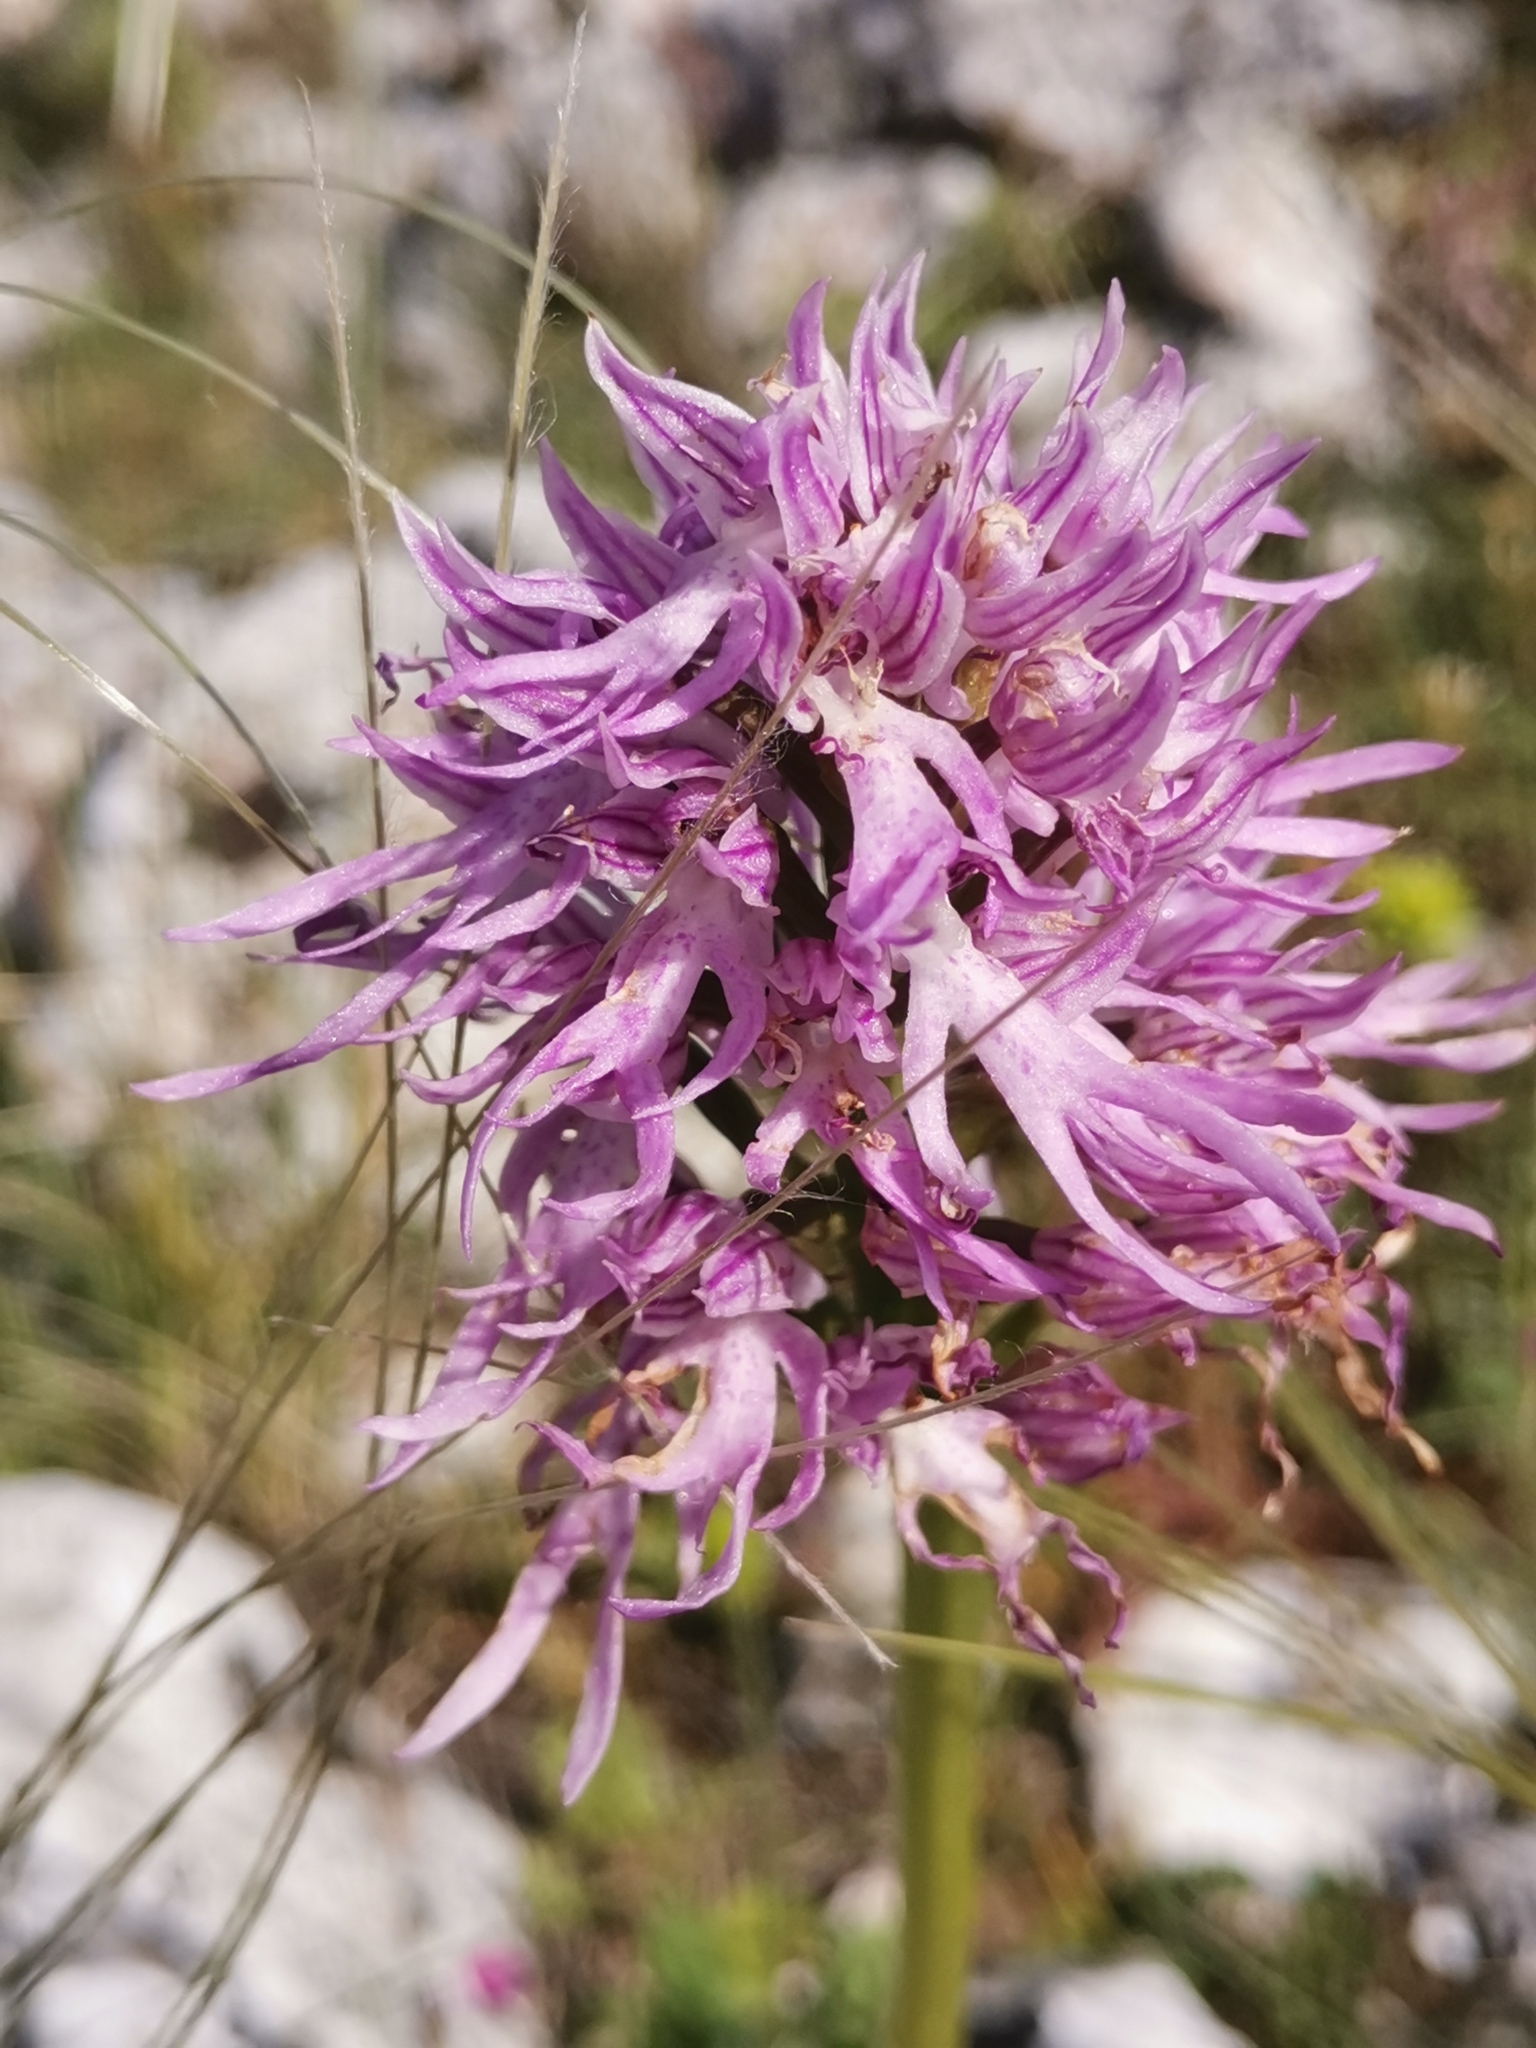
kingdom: Plantae
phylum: Tracheophyta
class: Liliopsida
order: Asparagales
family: Orchidaceae
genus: Orchis
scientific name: Orchis italica
